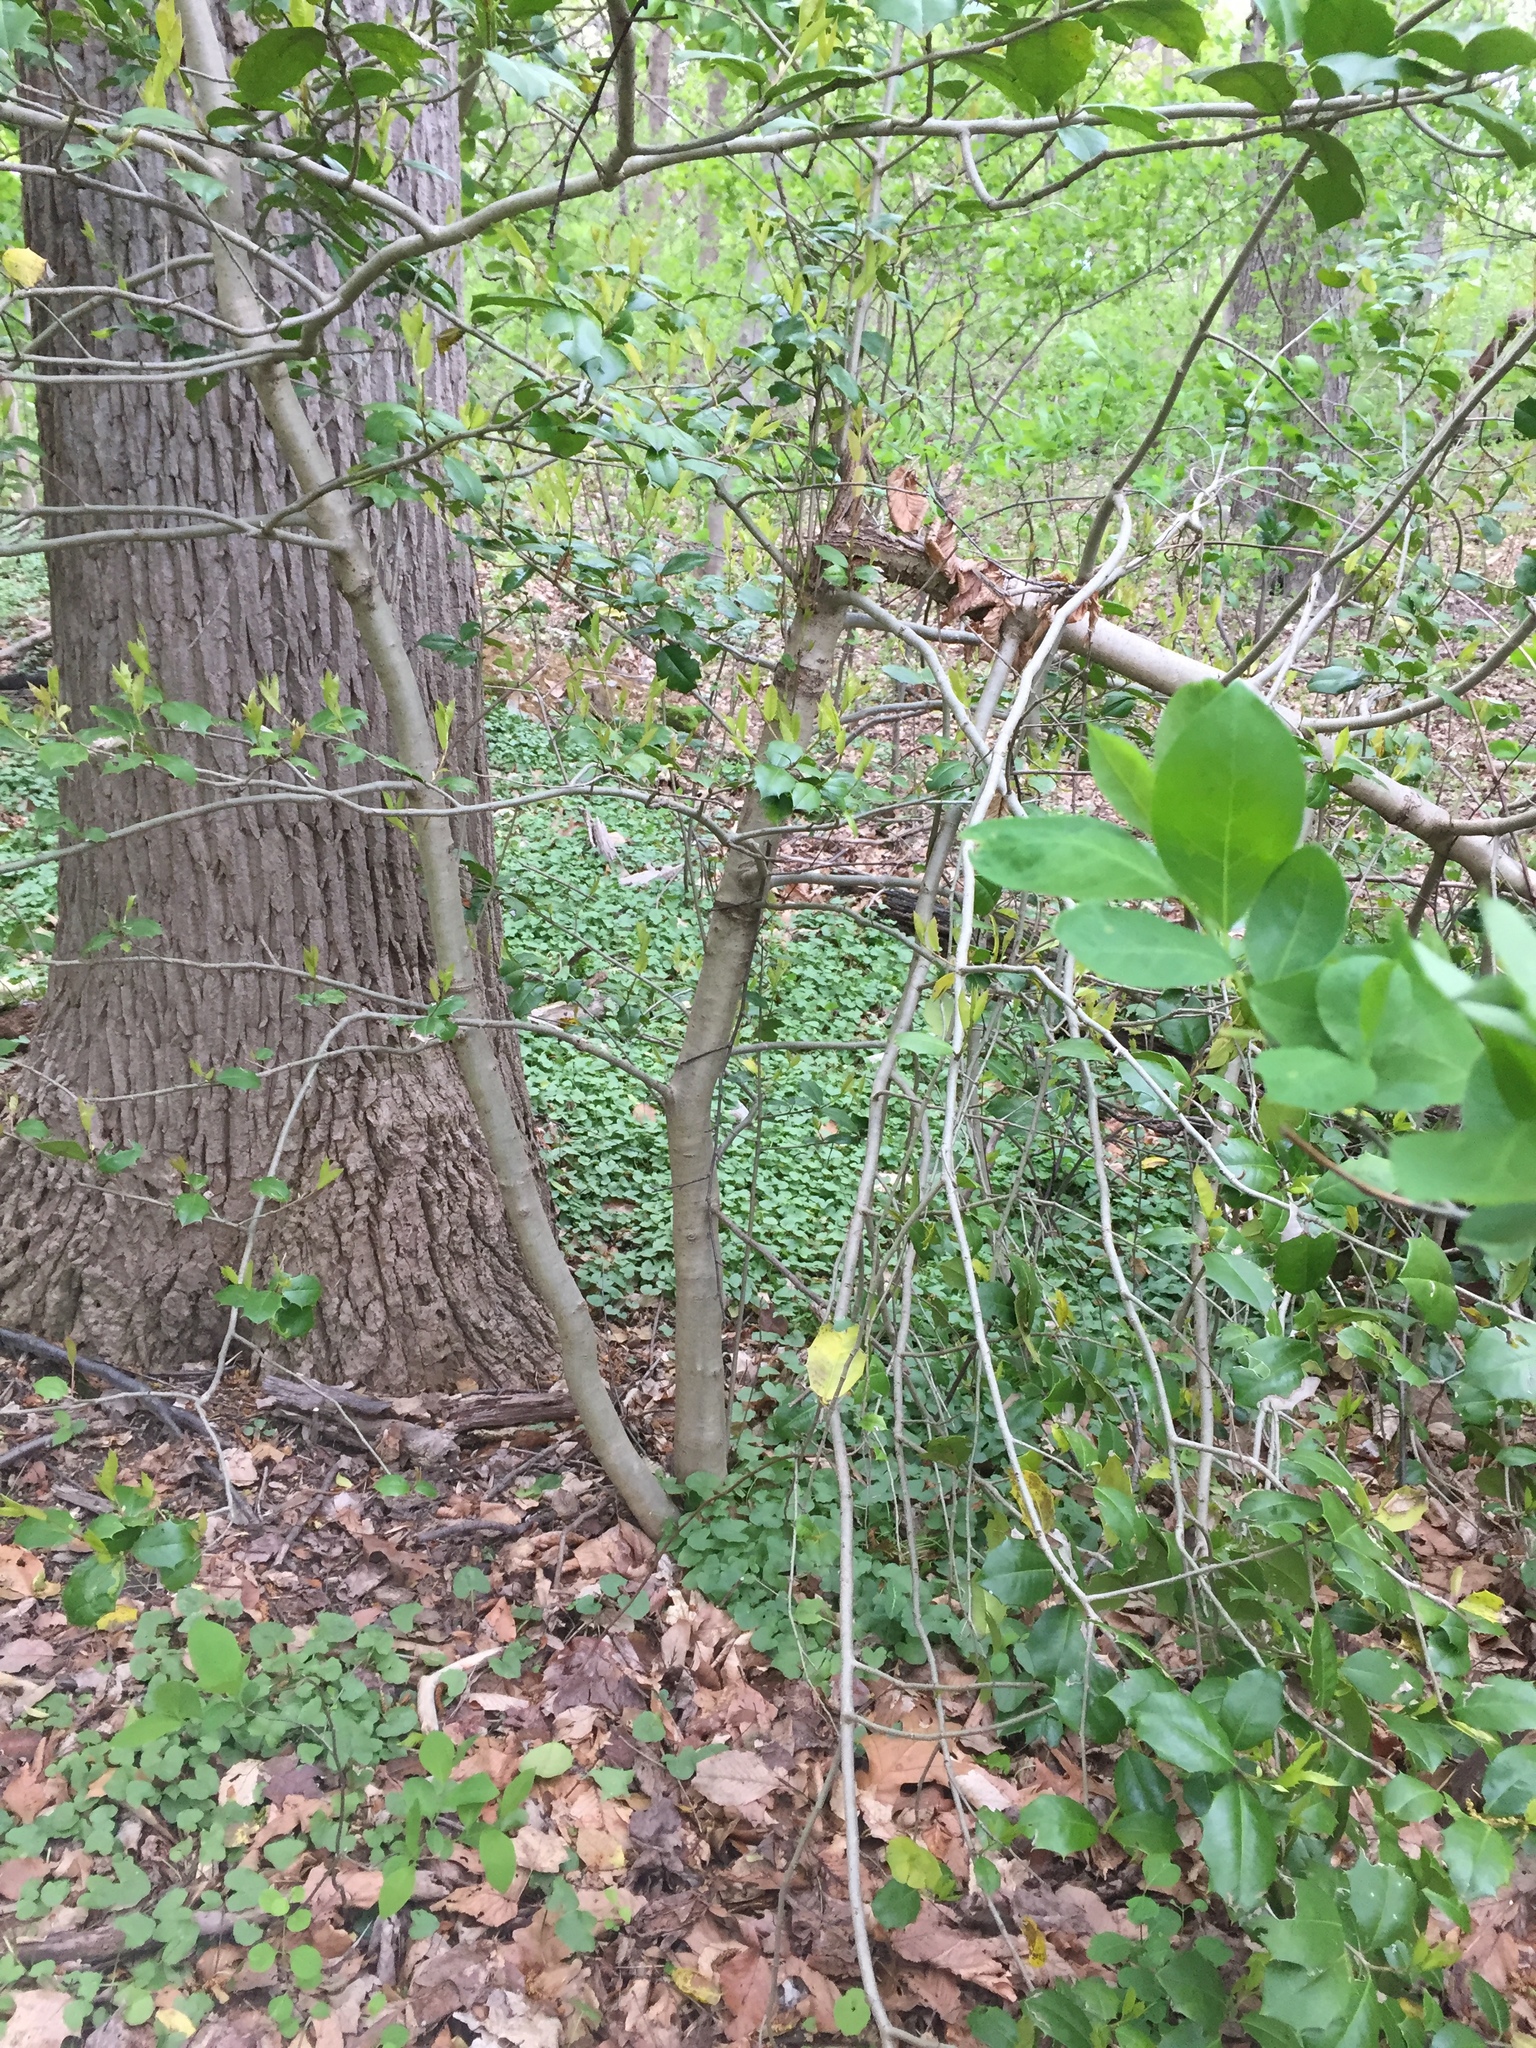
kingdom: Plantae
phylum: Tracheophyta
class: Magnoliopsida
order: Aquifoliales
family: Aquifoliaceae
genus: Ilex
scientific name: Ilex opaca
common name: American holly
